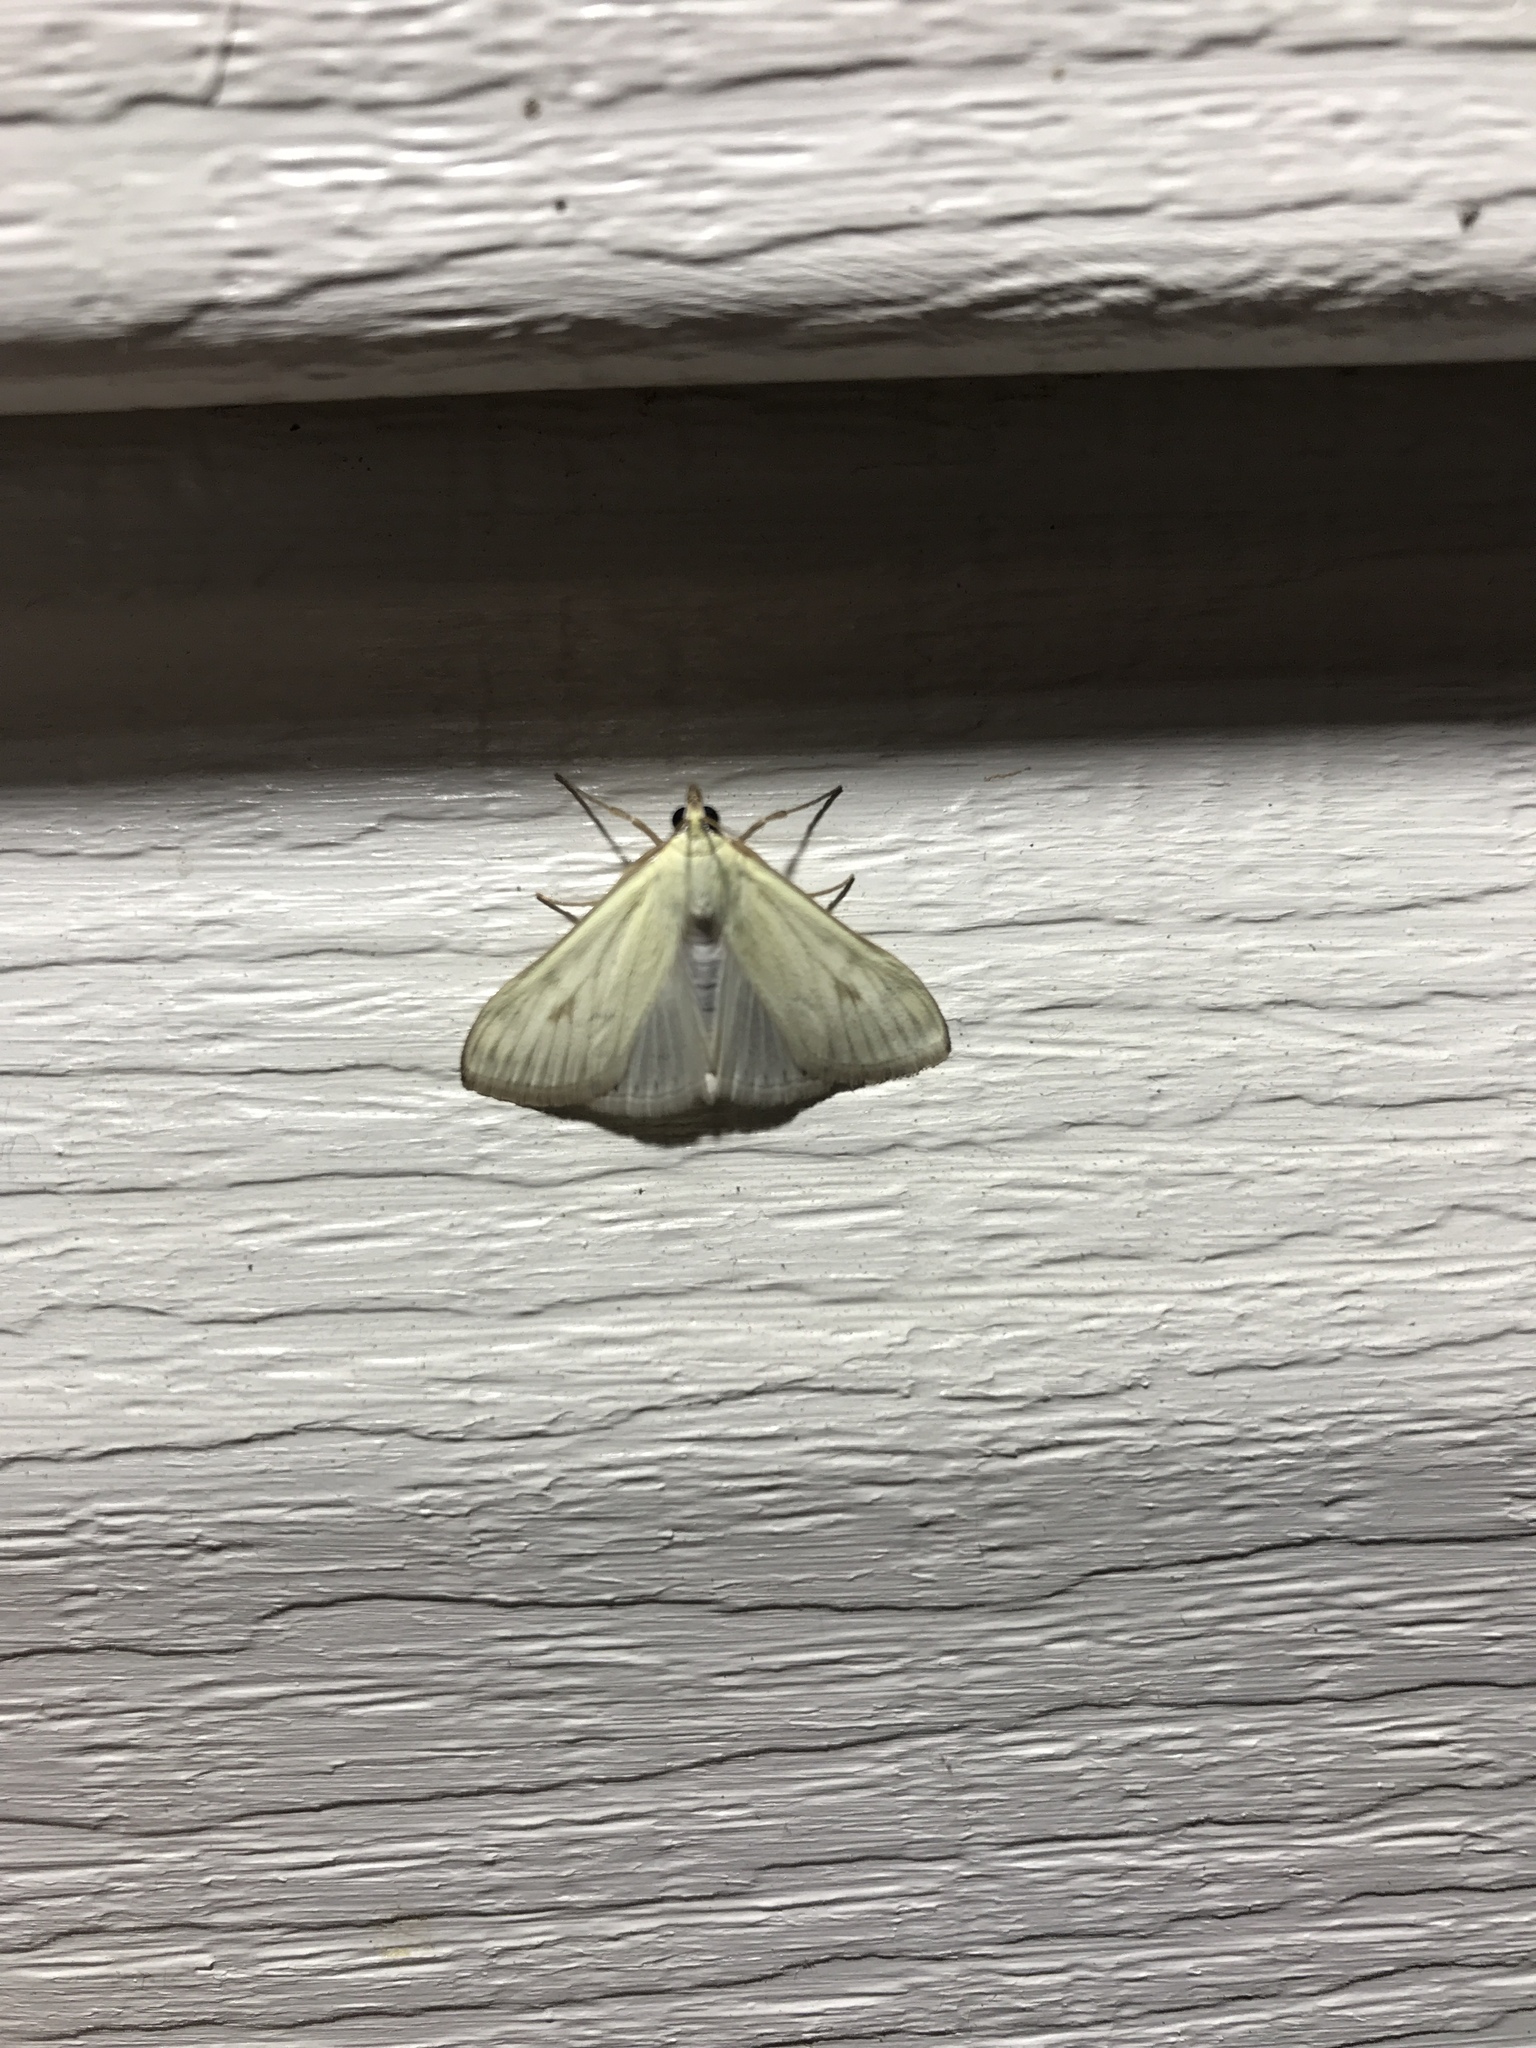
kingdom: Animalia
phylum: Arthropoda
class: Insecta
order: Lepidoptera
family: Crambidae
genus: Sitochroa
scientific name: Sitochroa palealis
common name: Greenish-yellow sitochroa moth
